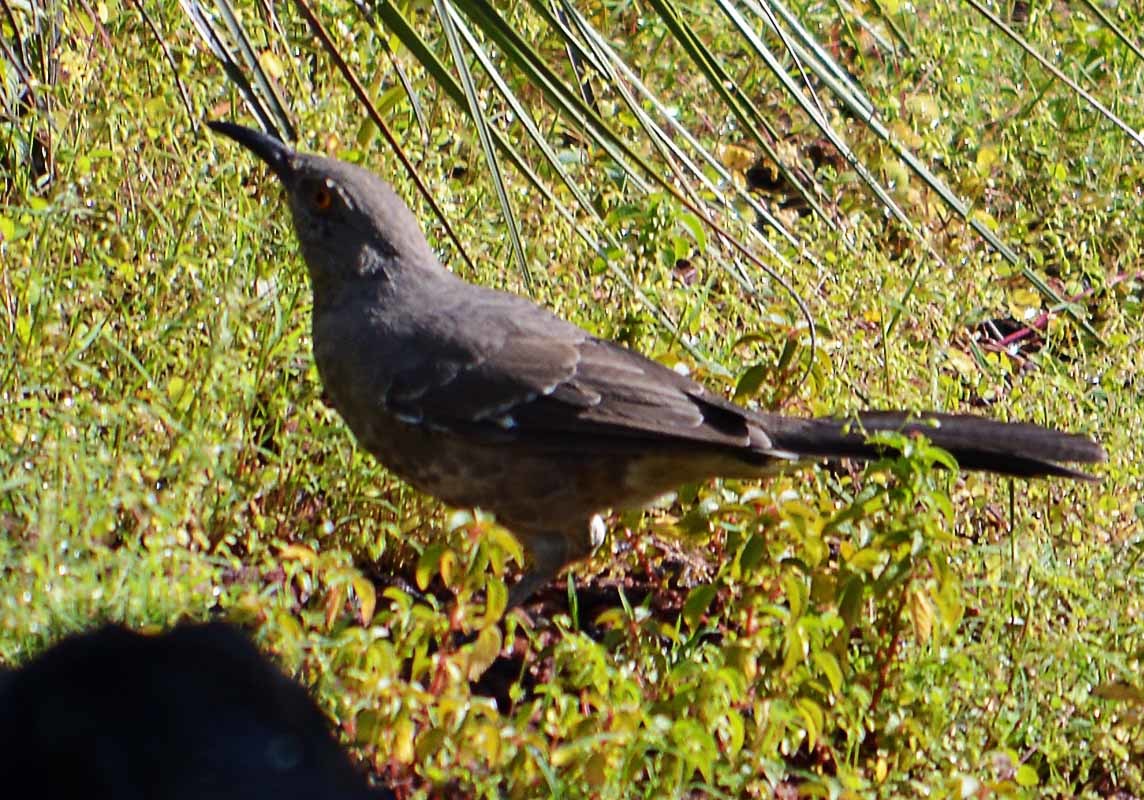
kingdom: Animalia
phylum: Chordata
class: Aves
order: Passeriformes
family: Mimidae
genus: Toxostoma
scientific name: Toxostoma curvirostre
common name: Curve-billed thrasher
